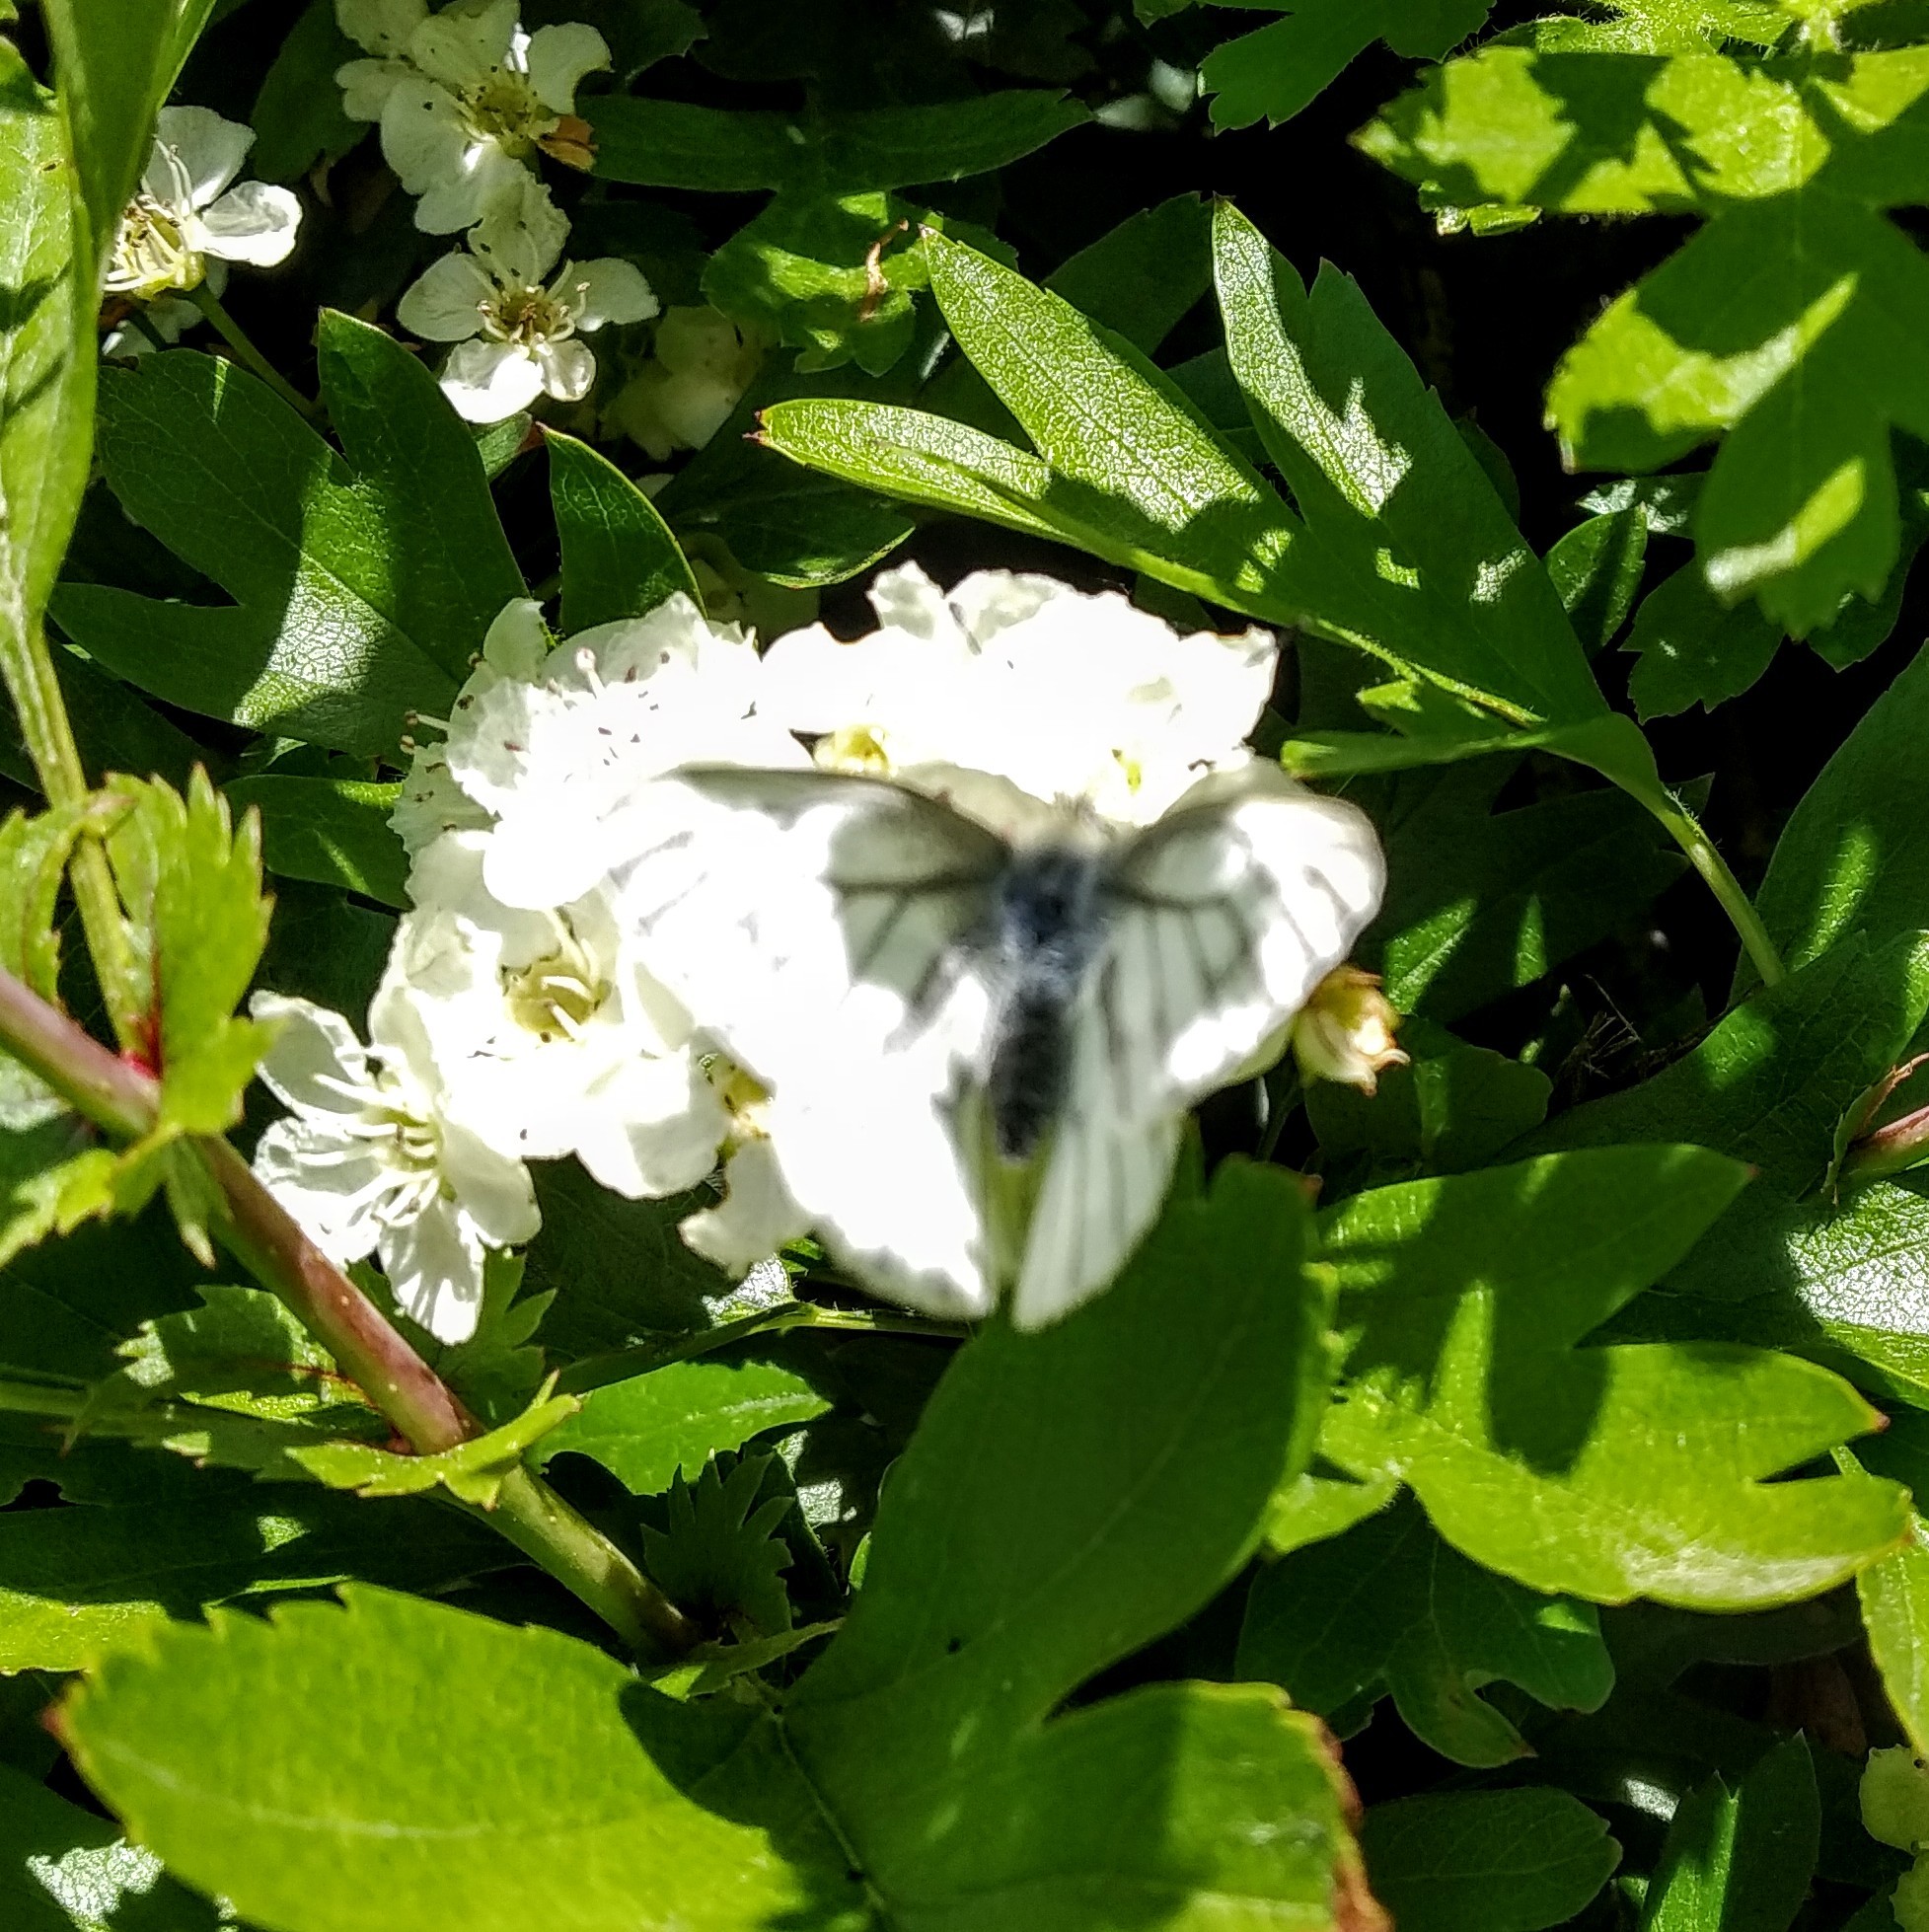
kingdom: Animalia
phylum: Arthropoda
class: Insecta
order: Lepidoptera
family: Pieridae
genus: Pieris
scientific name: Pieris napi
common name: Green-veined white
